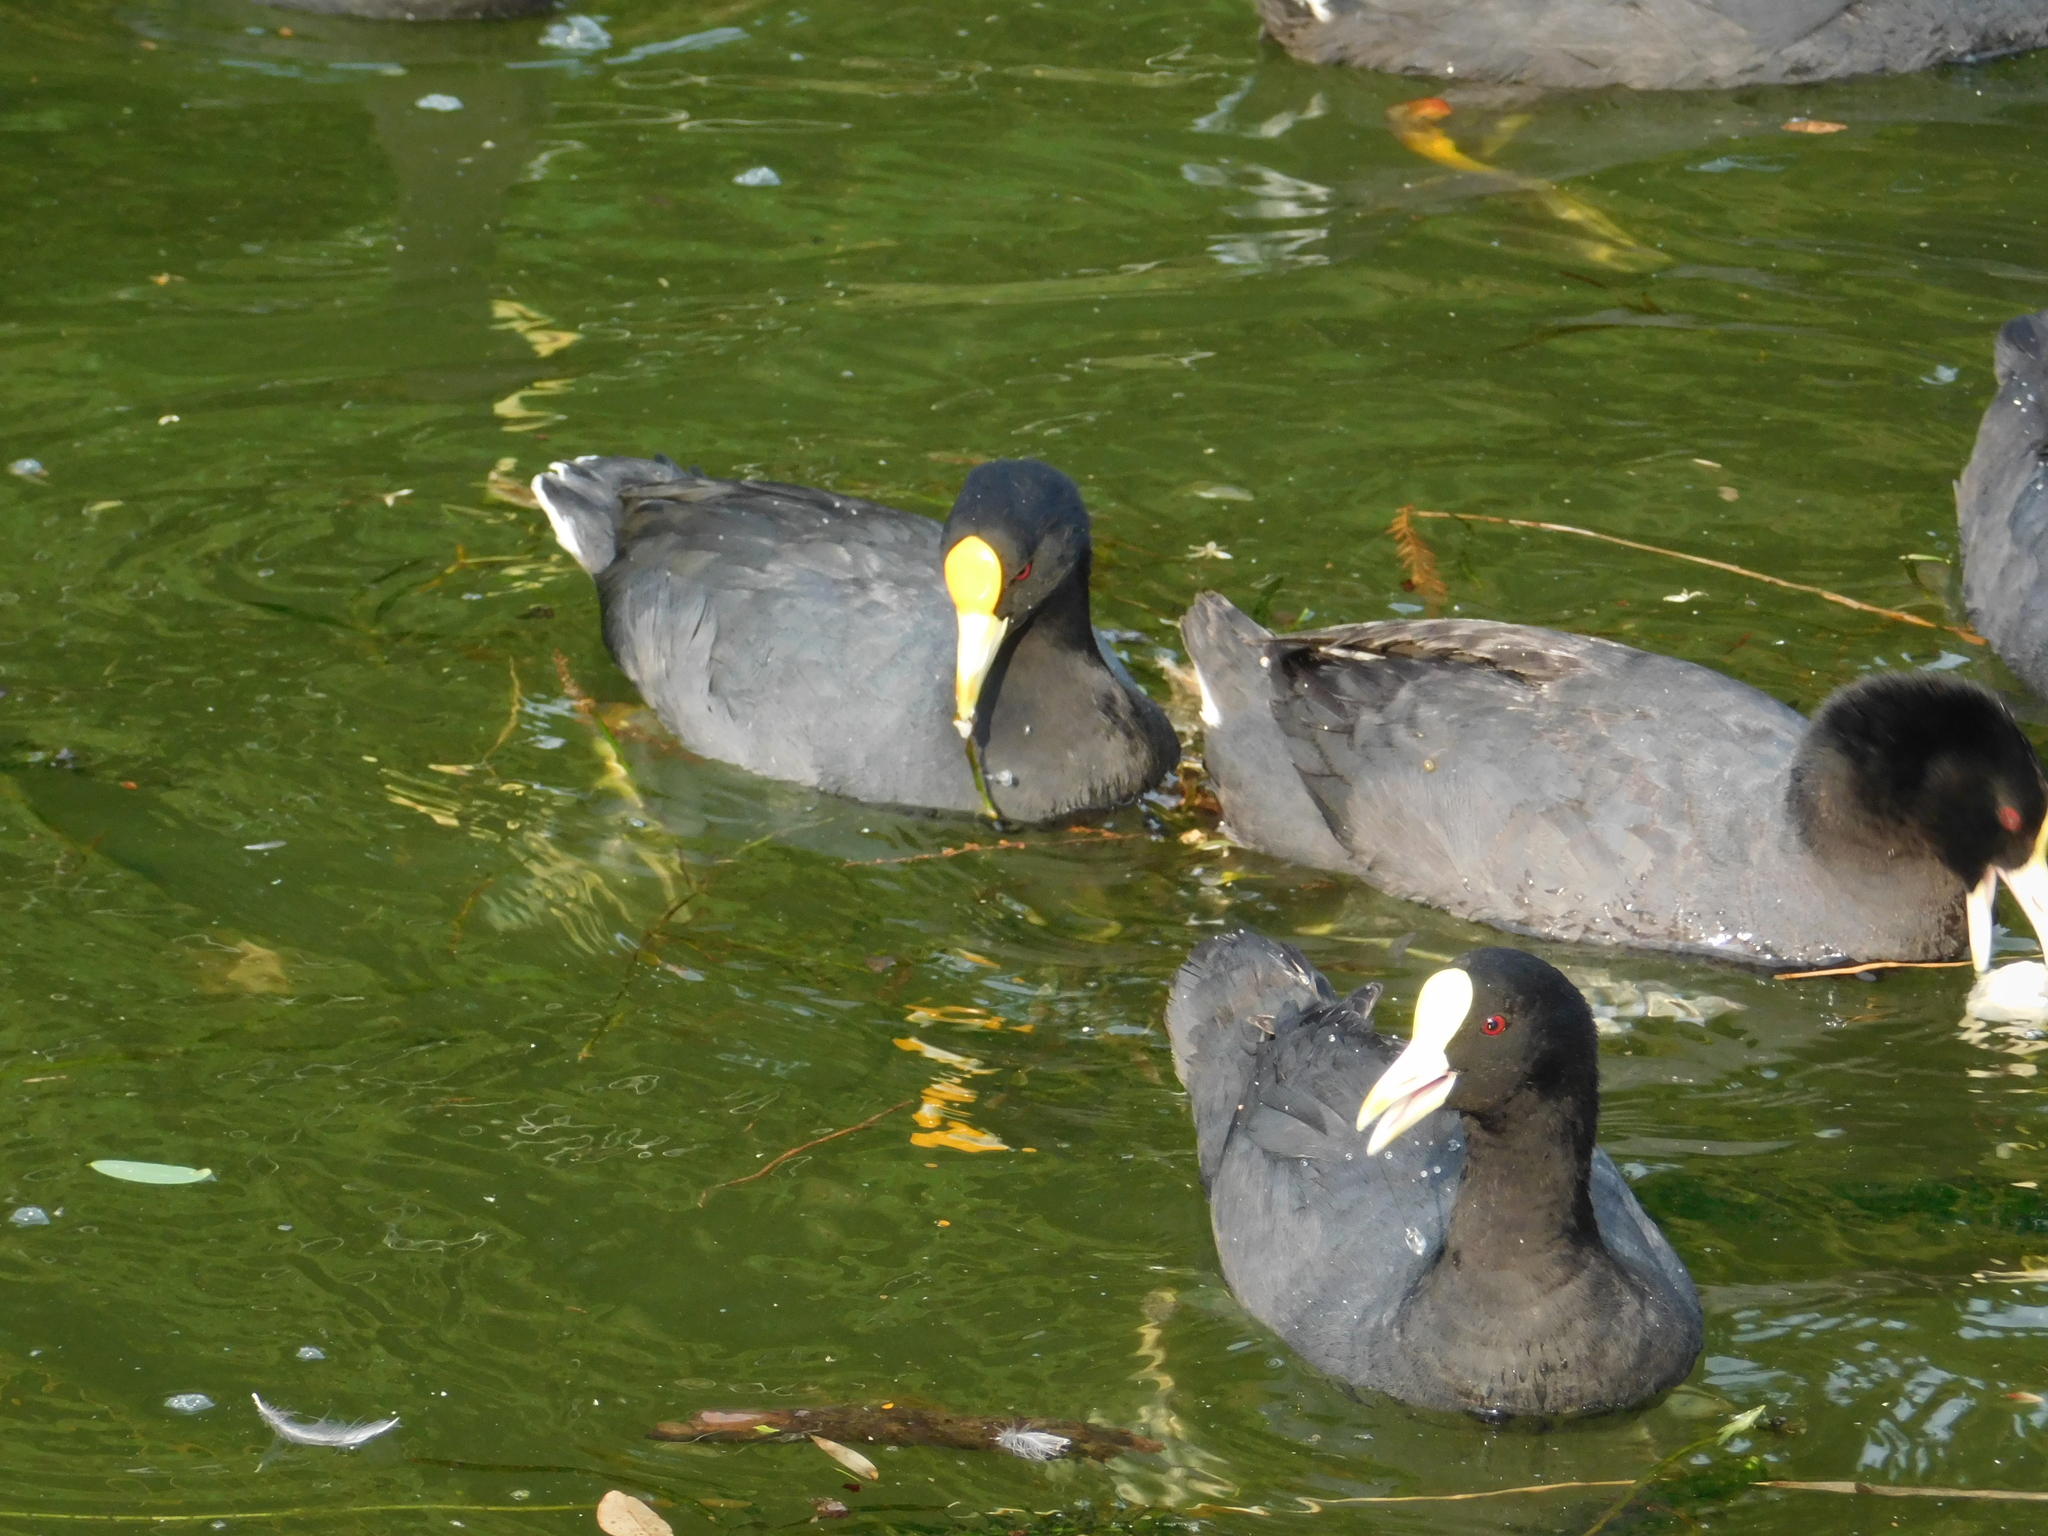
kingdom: Animalia
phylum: Chordata
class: Aves
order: Gruiformes
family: Rallidae
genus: Fulica
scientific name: Fulica leucoptera
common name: White-winged coot
